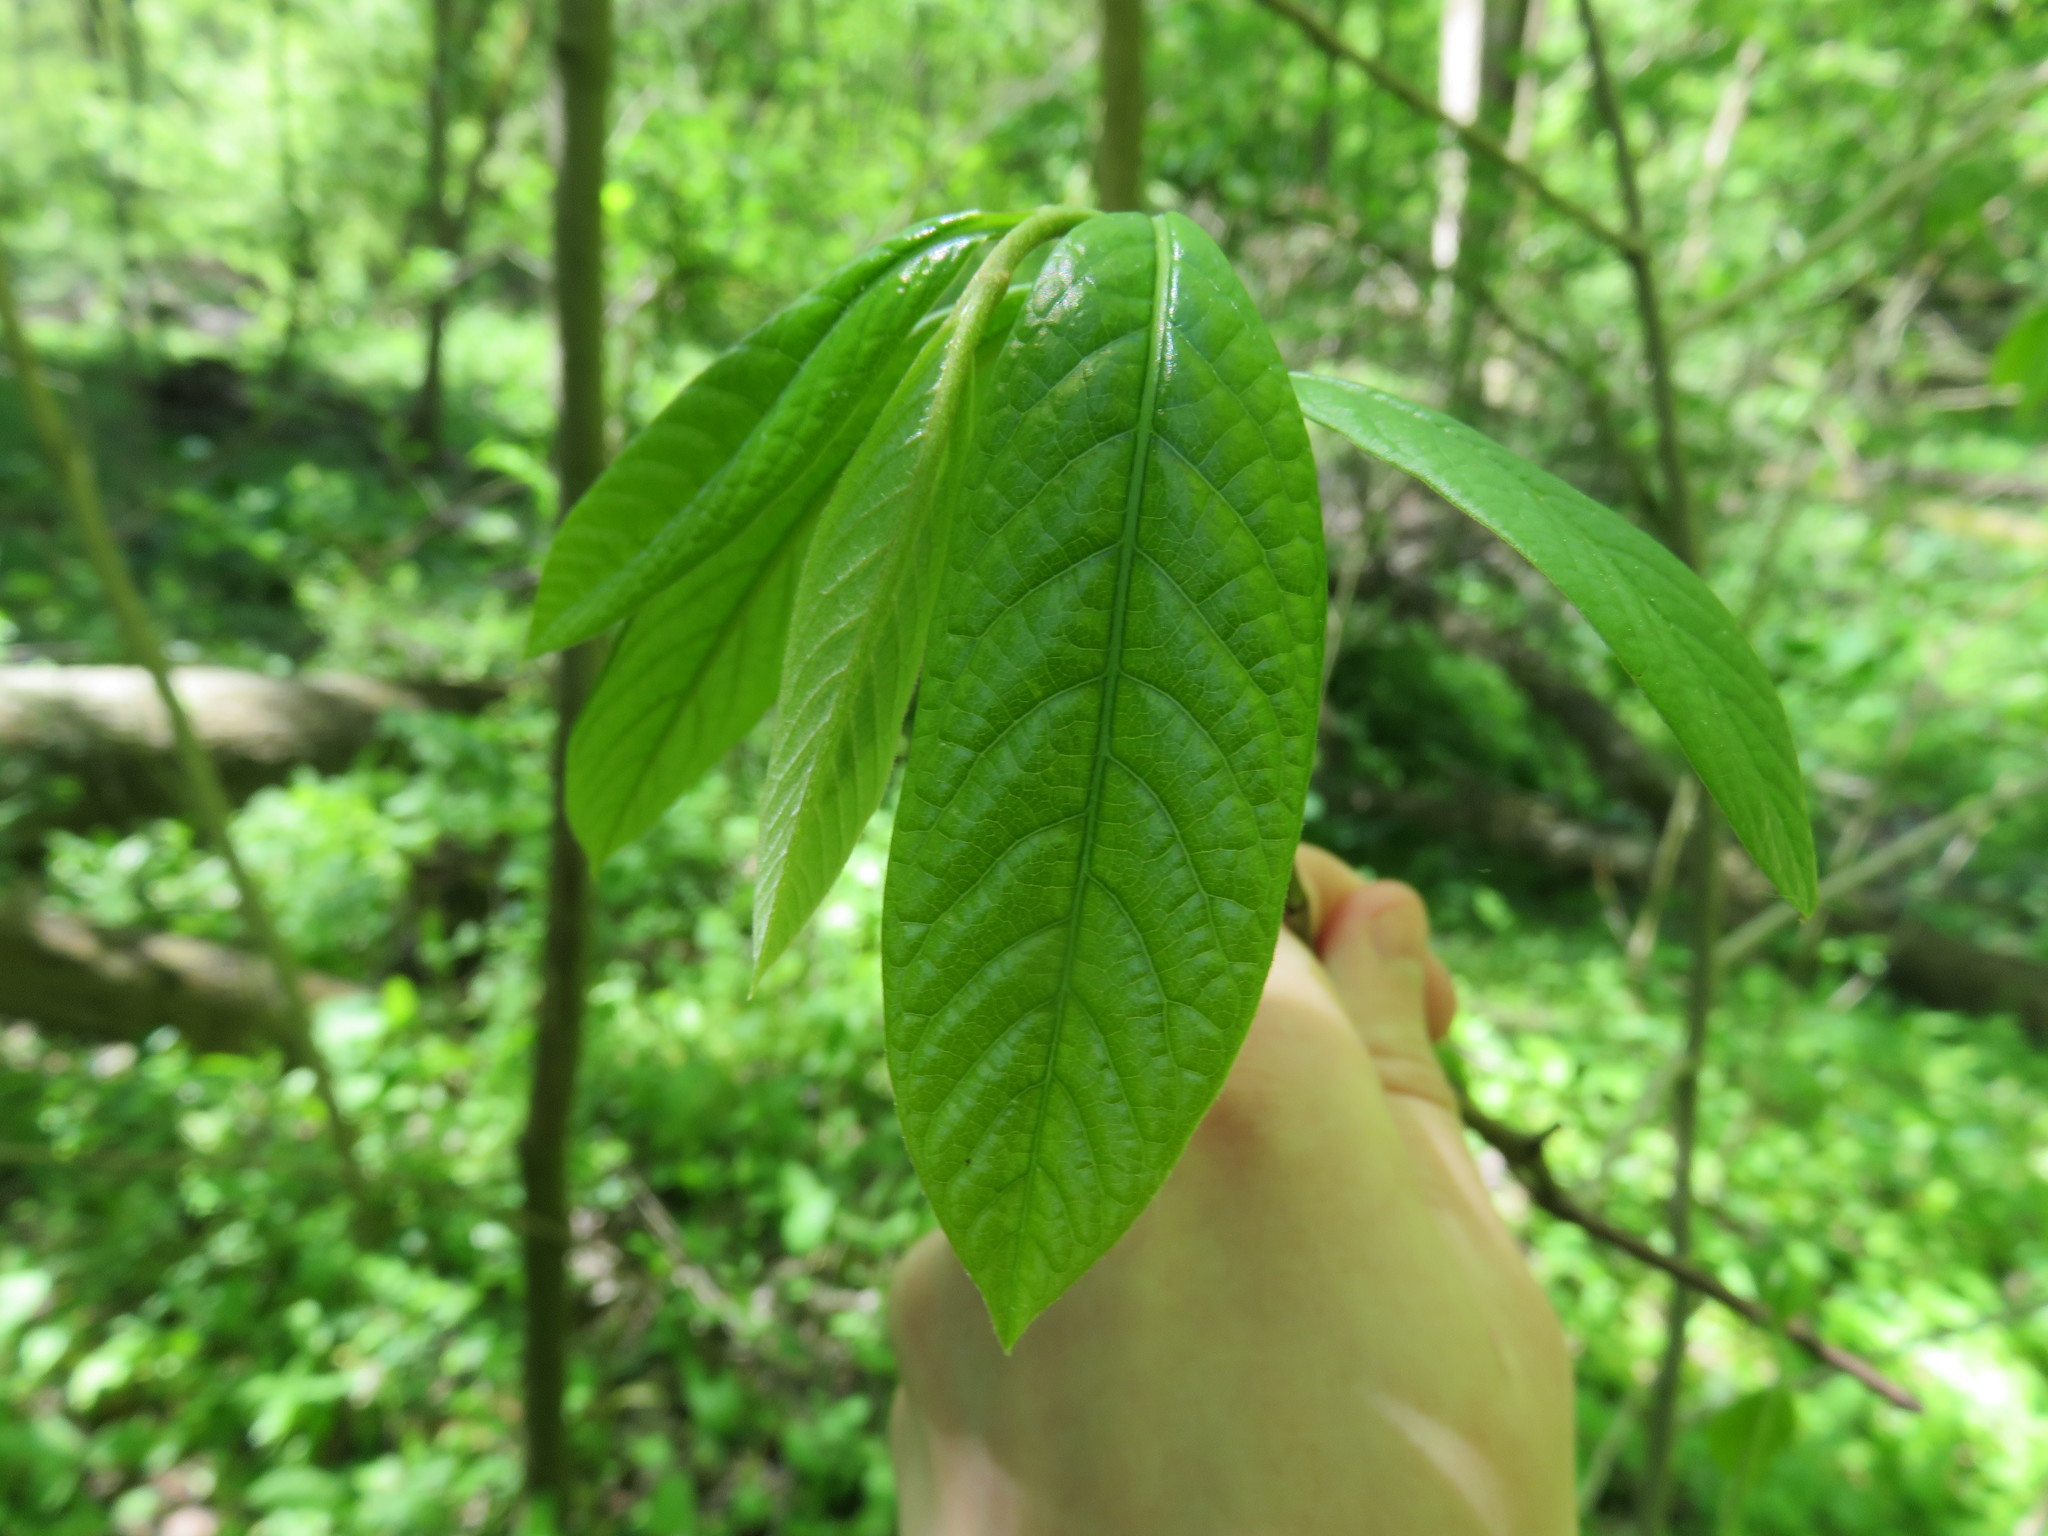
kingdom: Plantae
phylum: Tracheophyta
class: Magnoliopsida
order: Magnoliales
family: Annonaceae
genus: Asimina
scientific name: Asimina triloba
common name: Dog-banana
